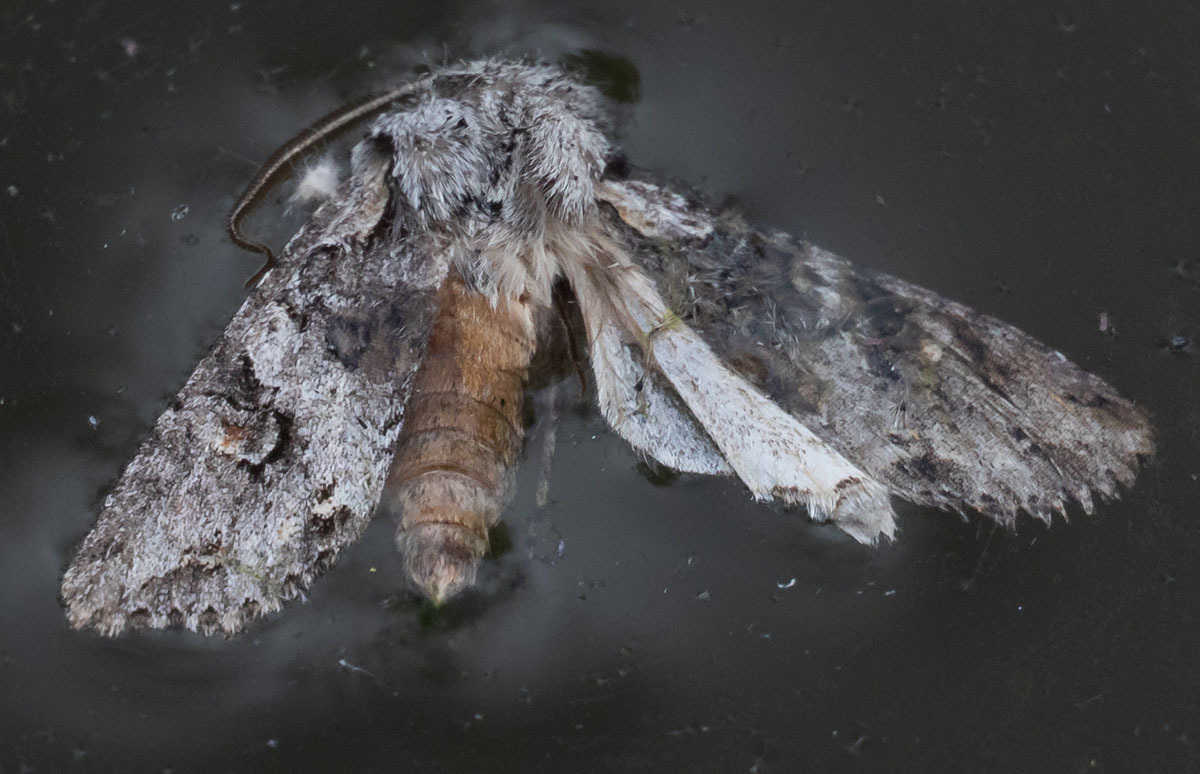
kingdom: Animalia
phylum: Arthropoda
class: Insecta
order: Lepidoptera
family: Noctuidae
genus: Egira
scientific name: Egira hiemalis
